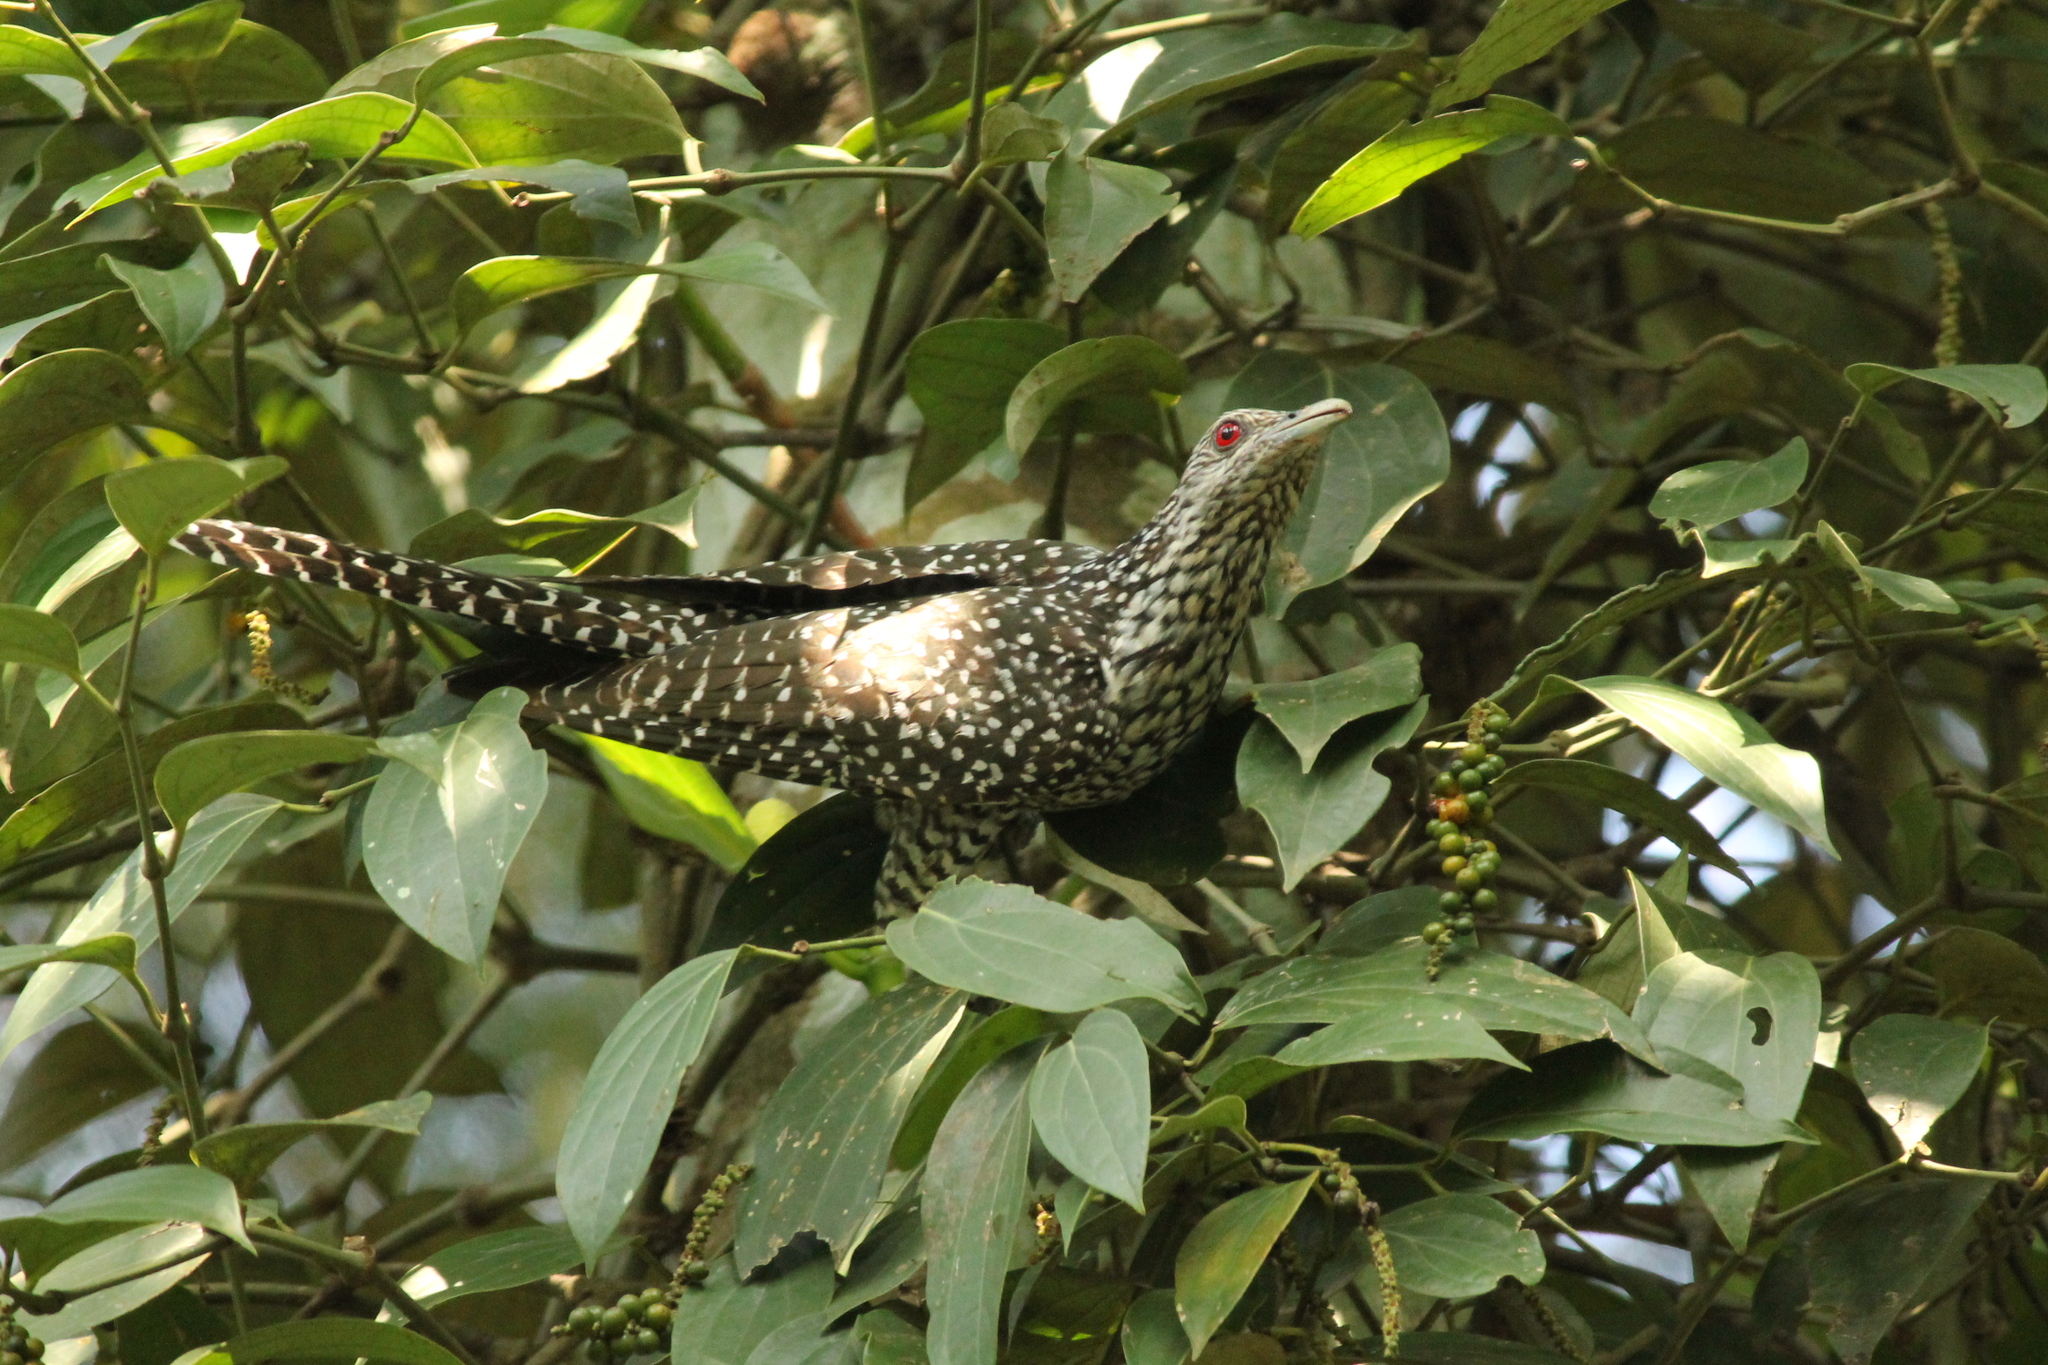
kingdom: Animalia
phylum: Chordata
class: Aves
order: Cuculiformes
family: Cuculidae
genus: Eudynamys
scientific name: Eudynamys scolopaceus
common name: Asian koel
